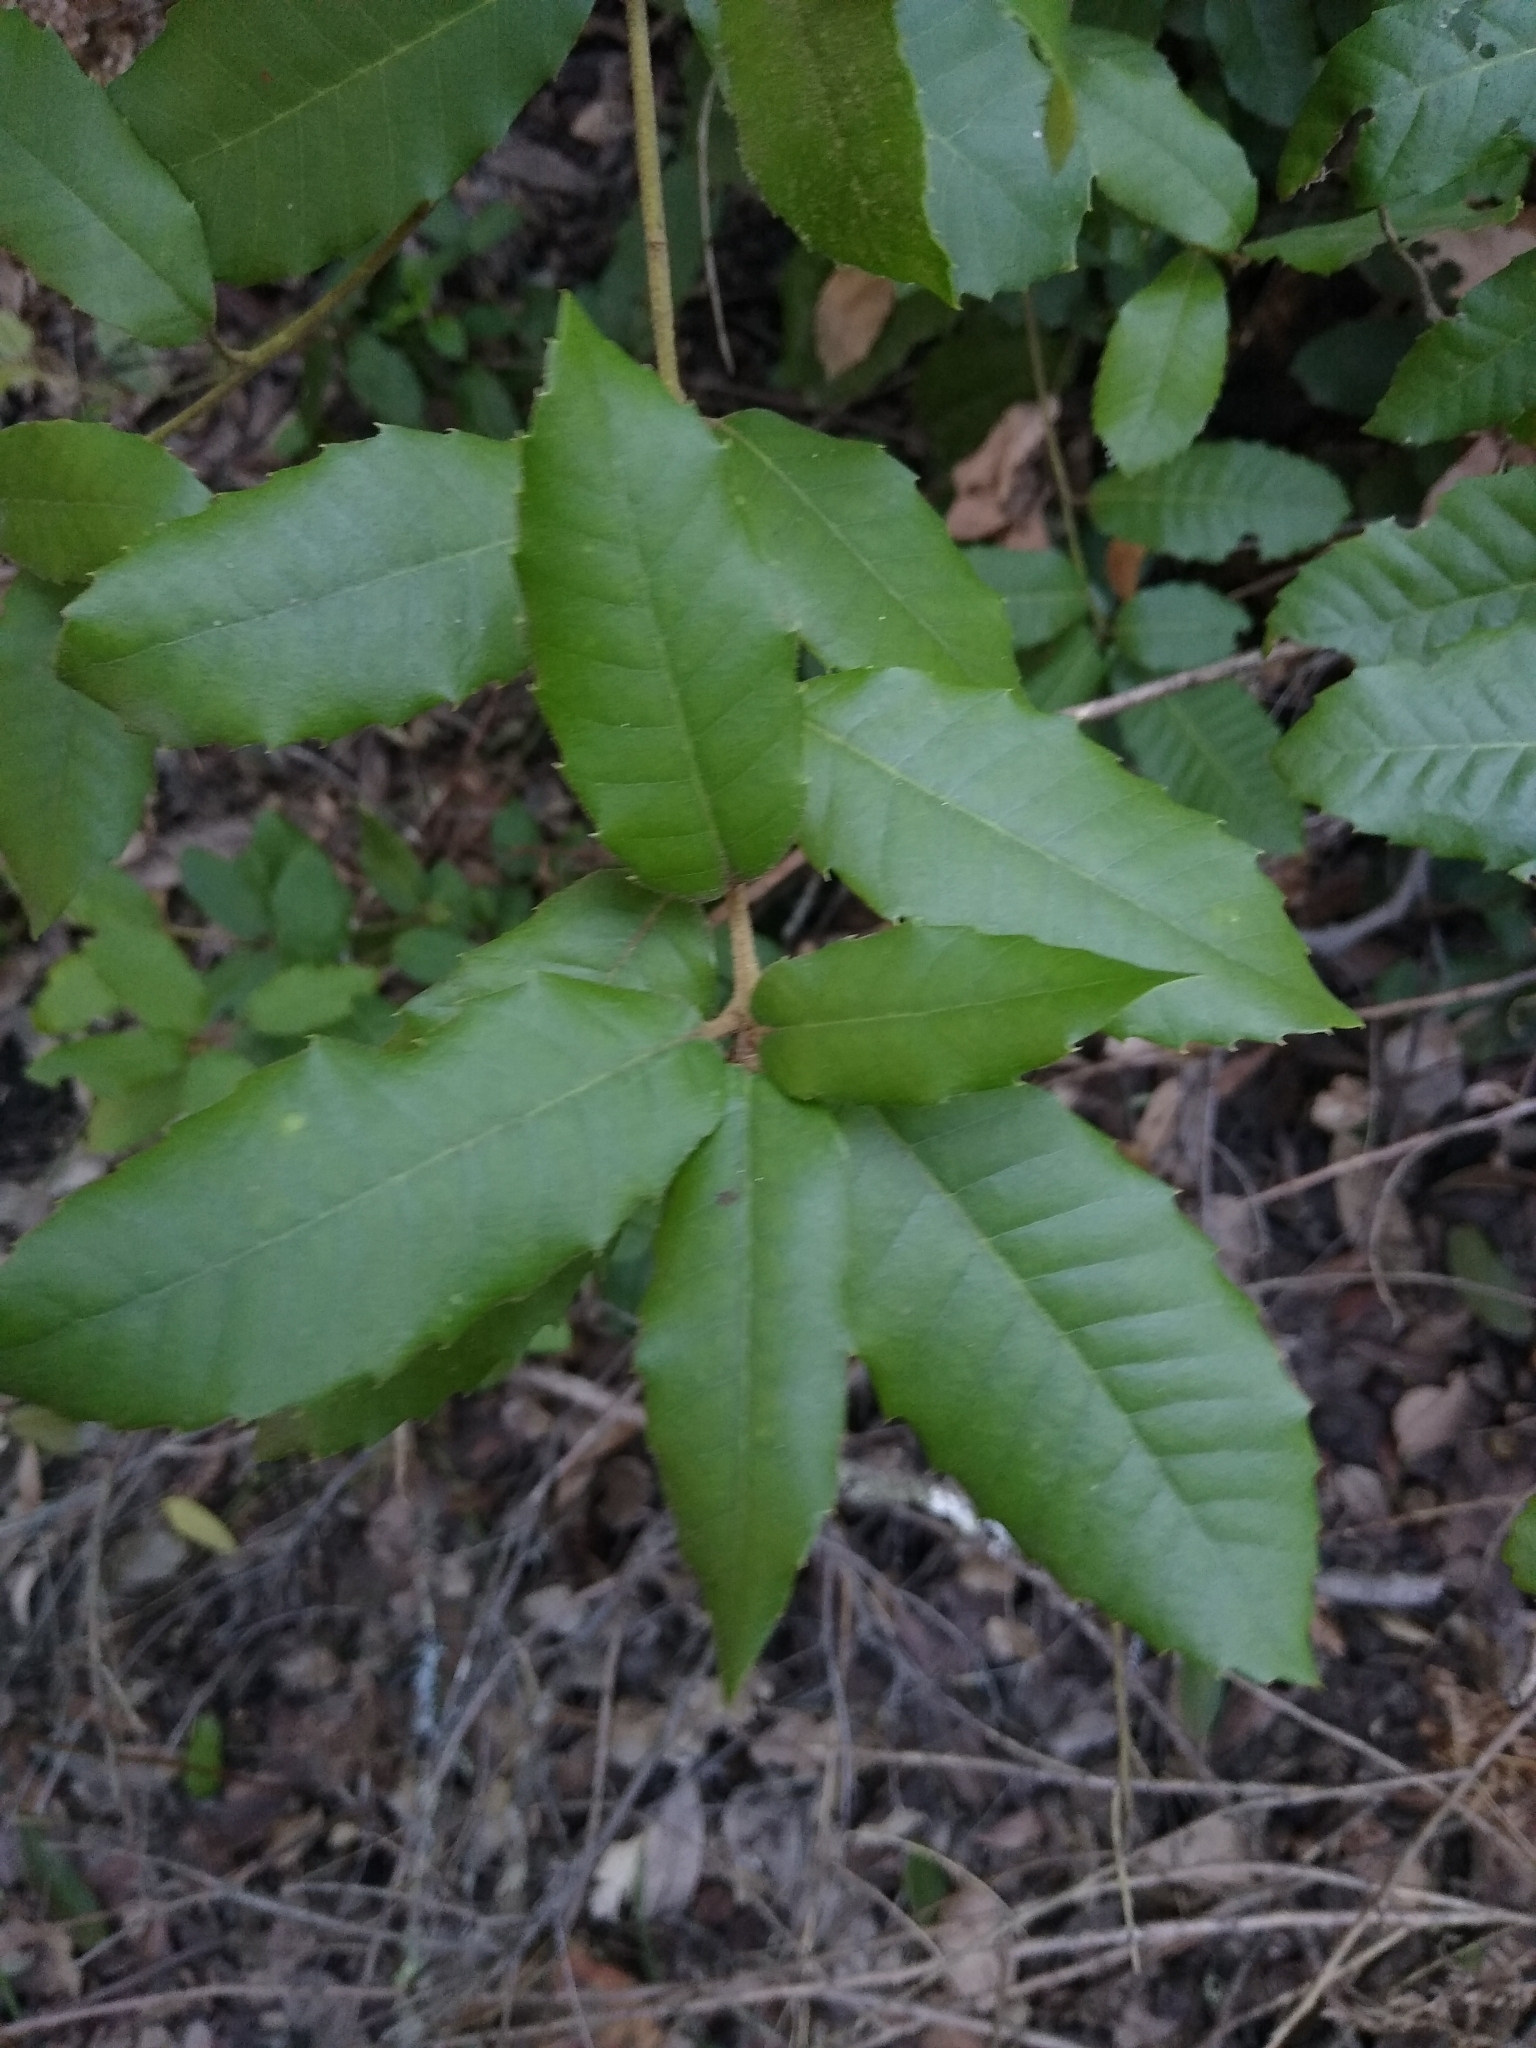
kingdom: Plantae
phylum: Tracheophyta
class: Magnoliopsida
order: Fagales
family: Fagaceae
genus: Notholithocarpus
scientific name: Notholithocarpus densiflorus
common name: Tan bark oak
